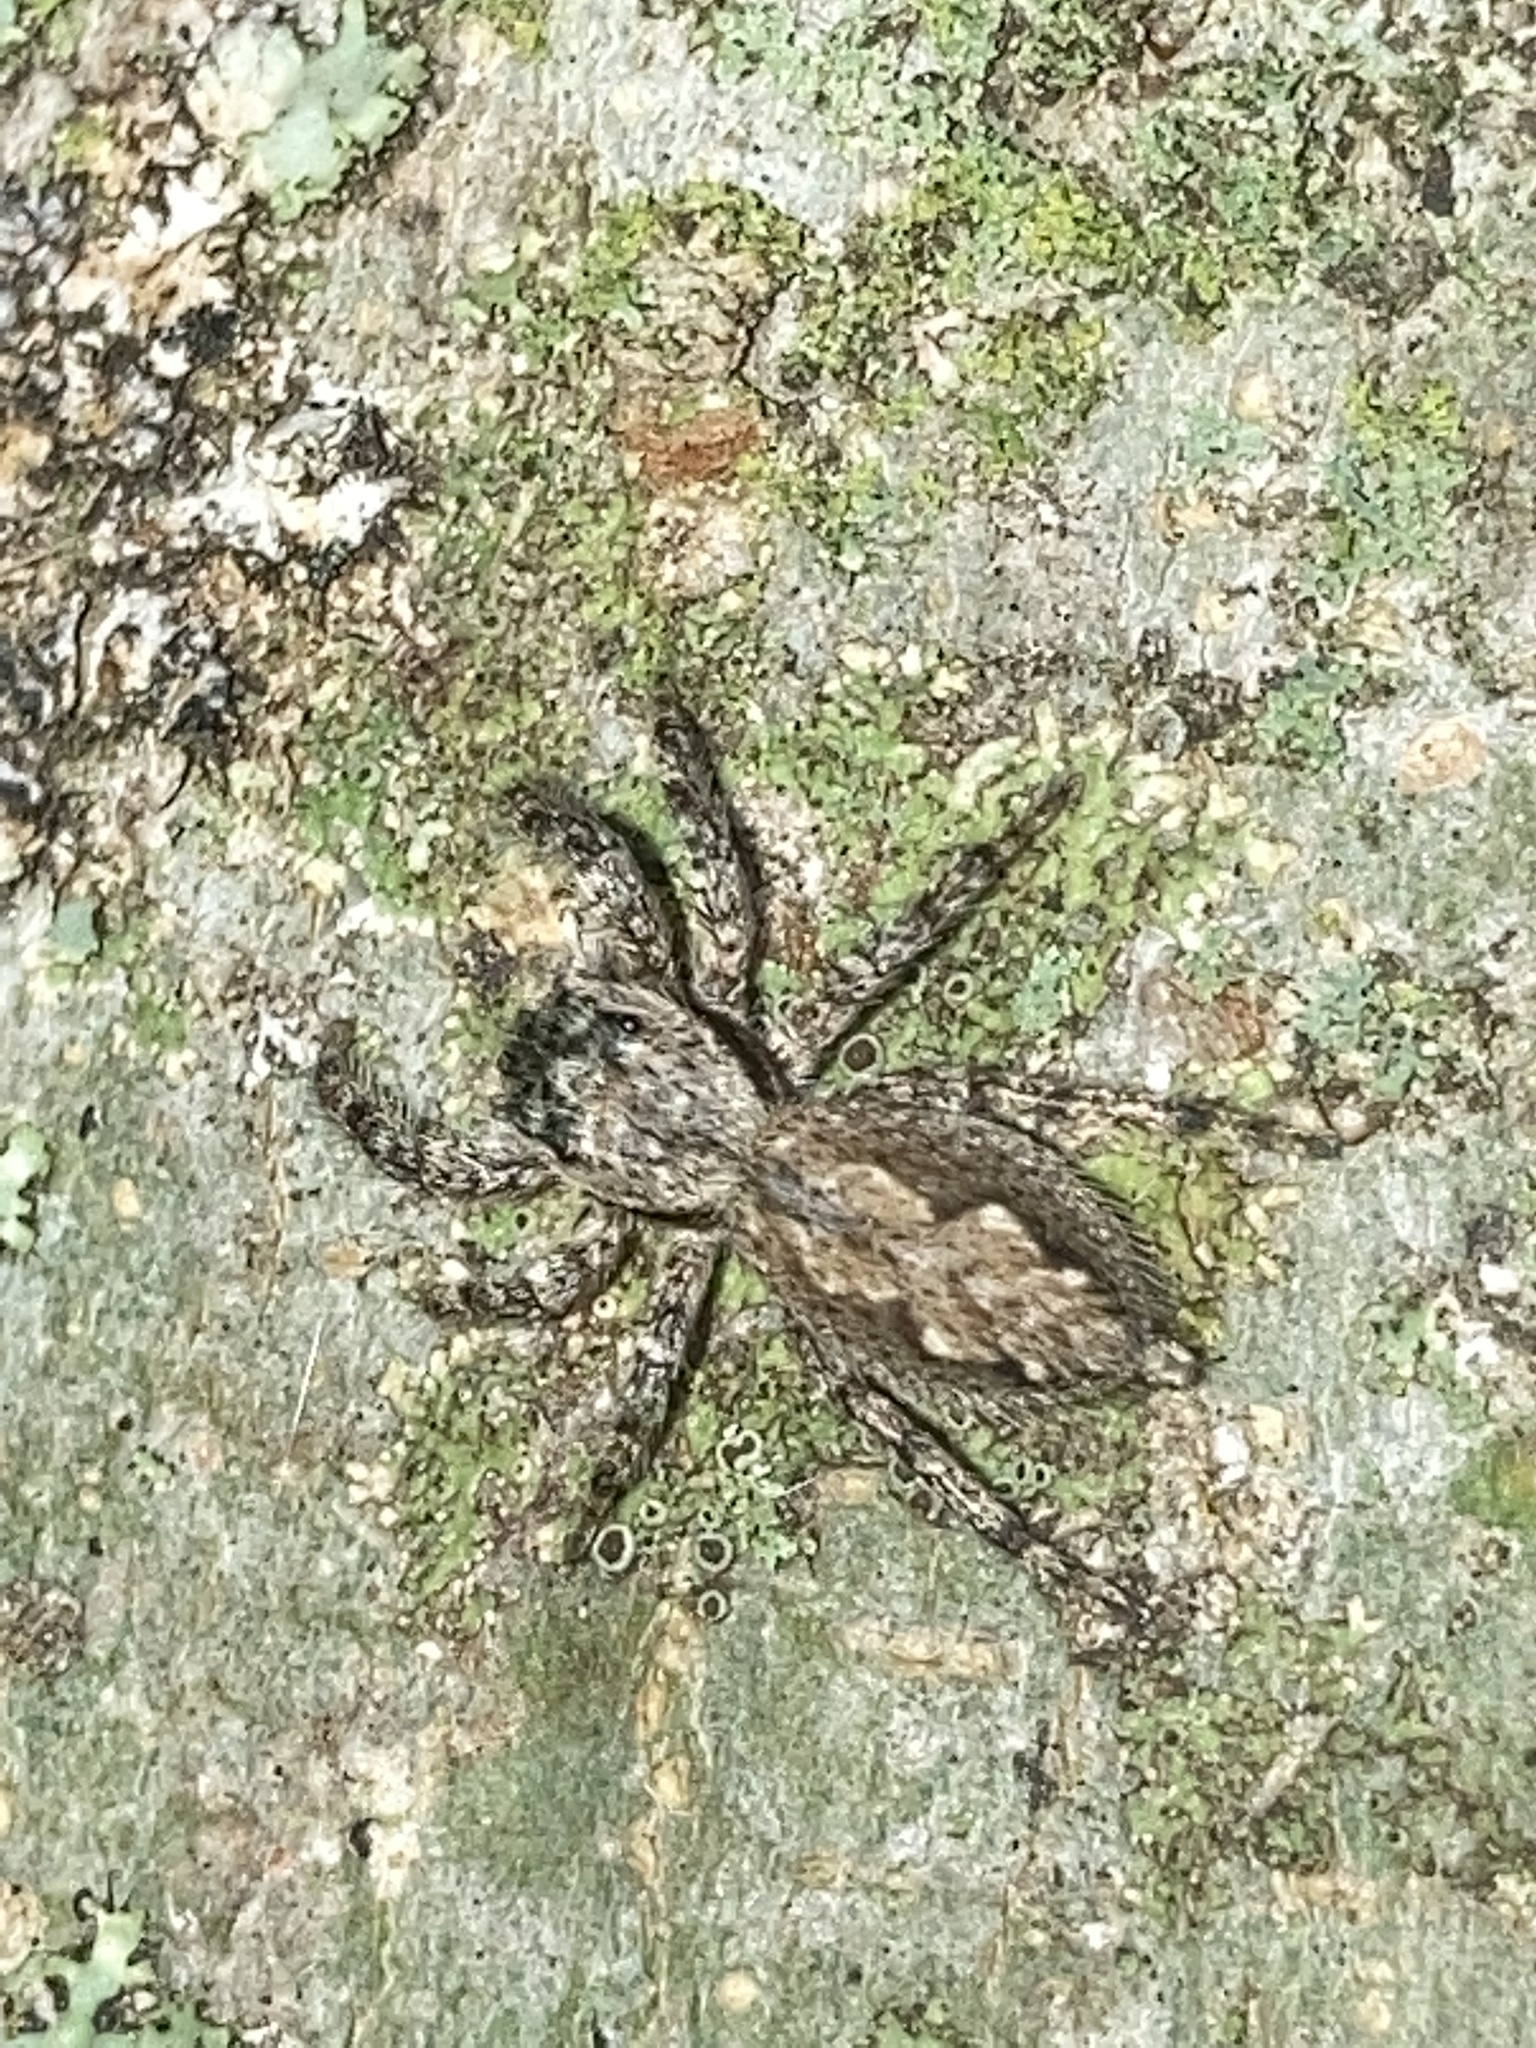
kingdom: Animalia
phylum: Arthropoda
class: Arachnida
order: Araneae
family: Salticidae
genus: Platycryptus
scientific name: Platycryptus undatus
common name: Tan jumping spider
